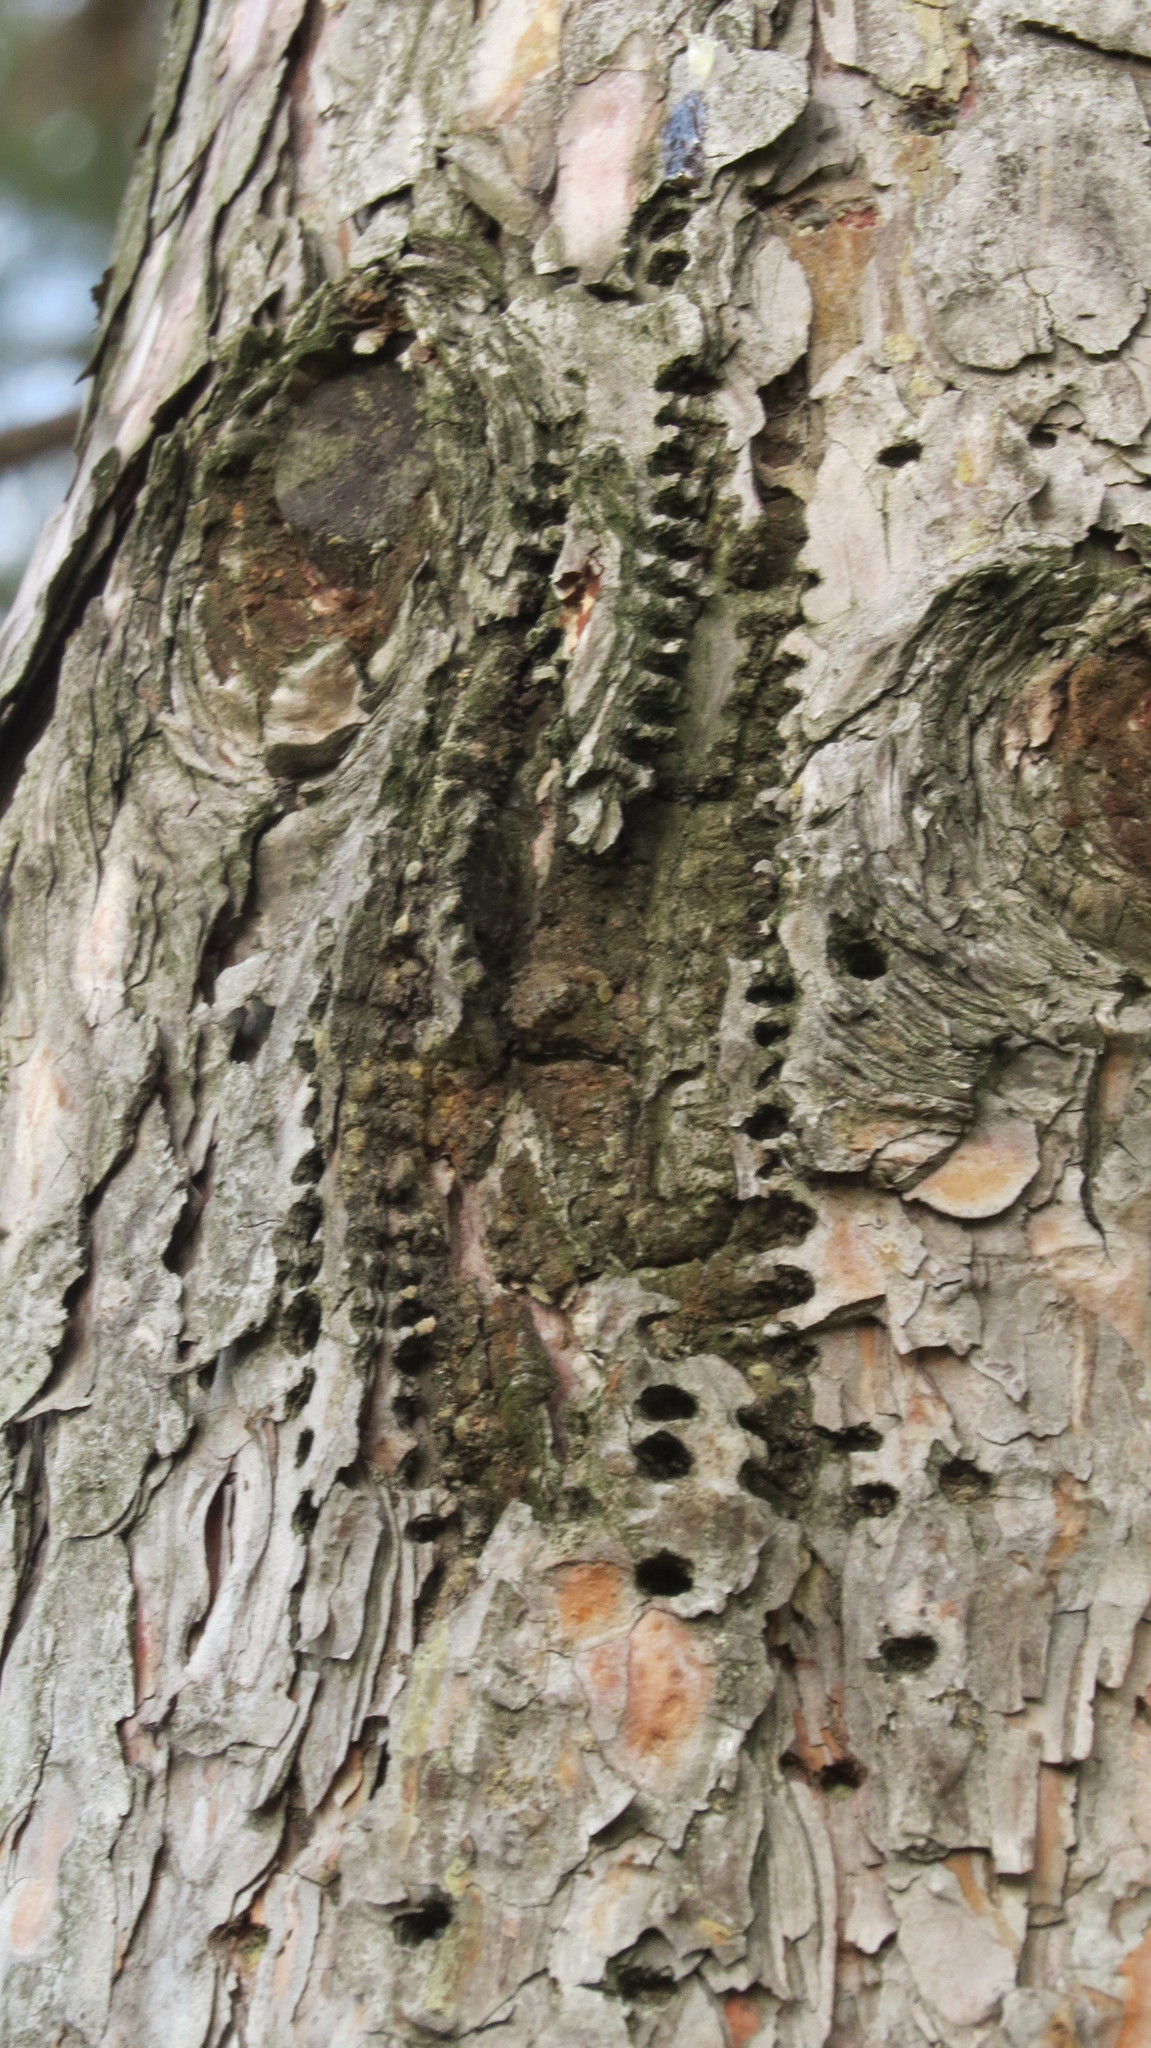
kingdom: Animalia
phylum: Chordata
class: Aves
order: Piciformes
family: Picidae
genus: Sphyrapicus
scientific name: Sphyrapicus varius
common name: Yellow-bellied sapsucker
